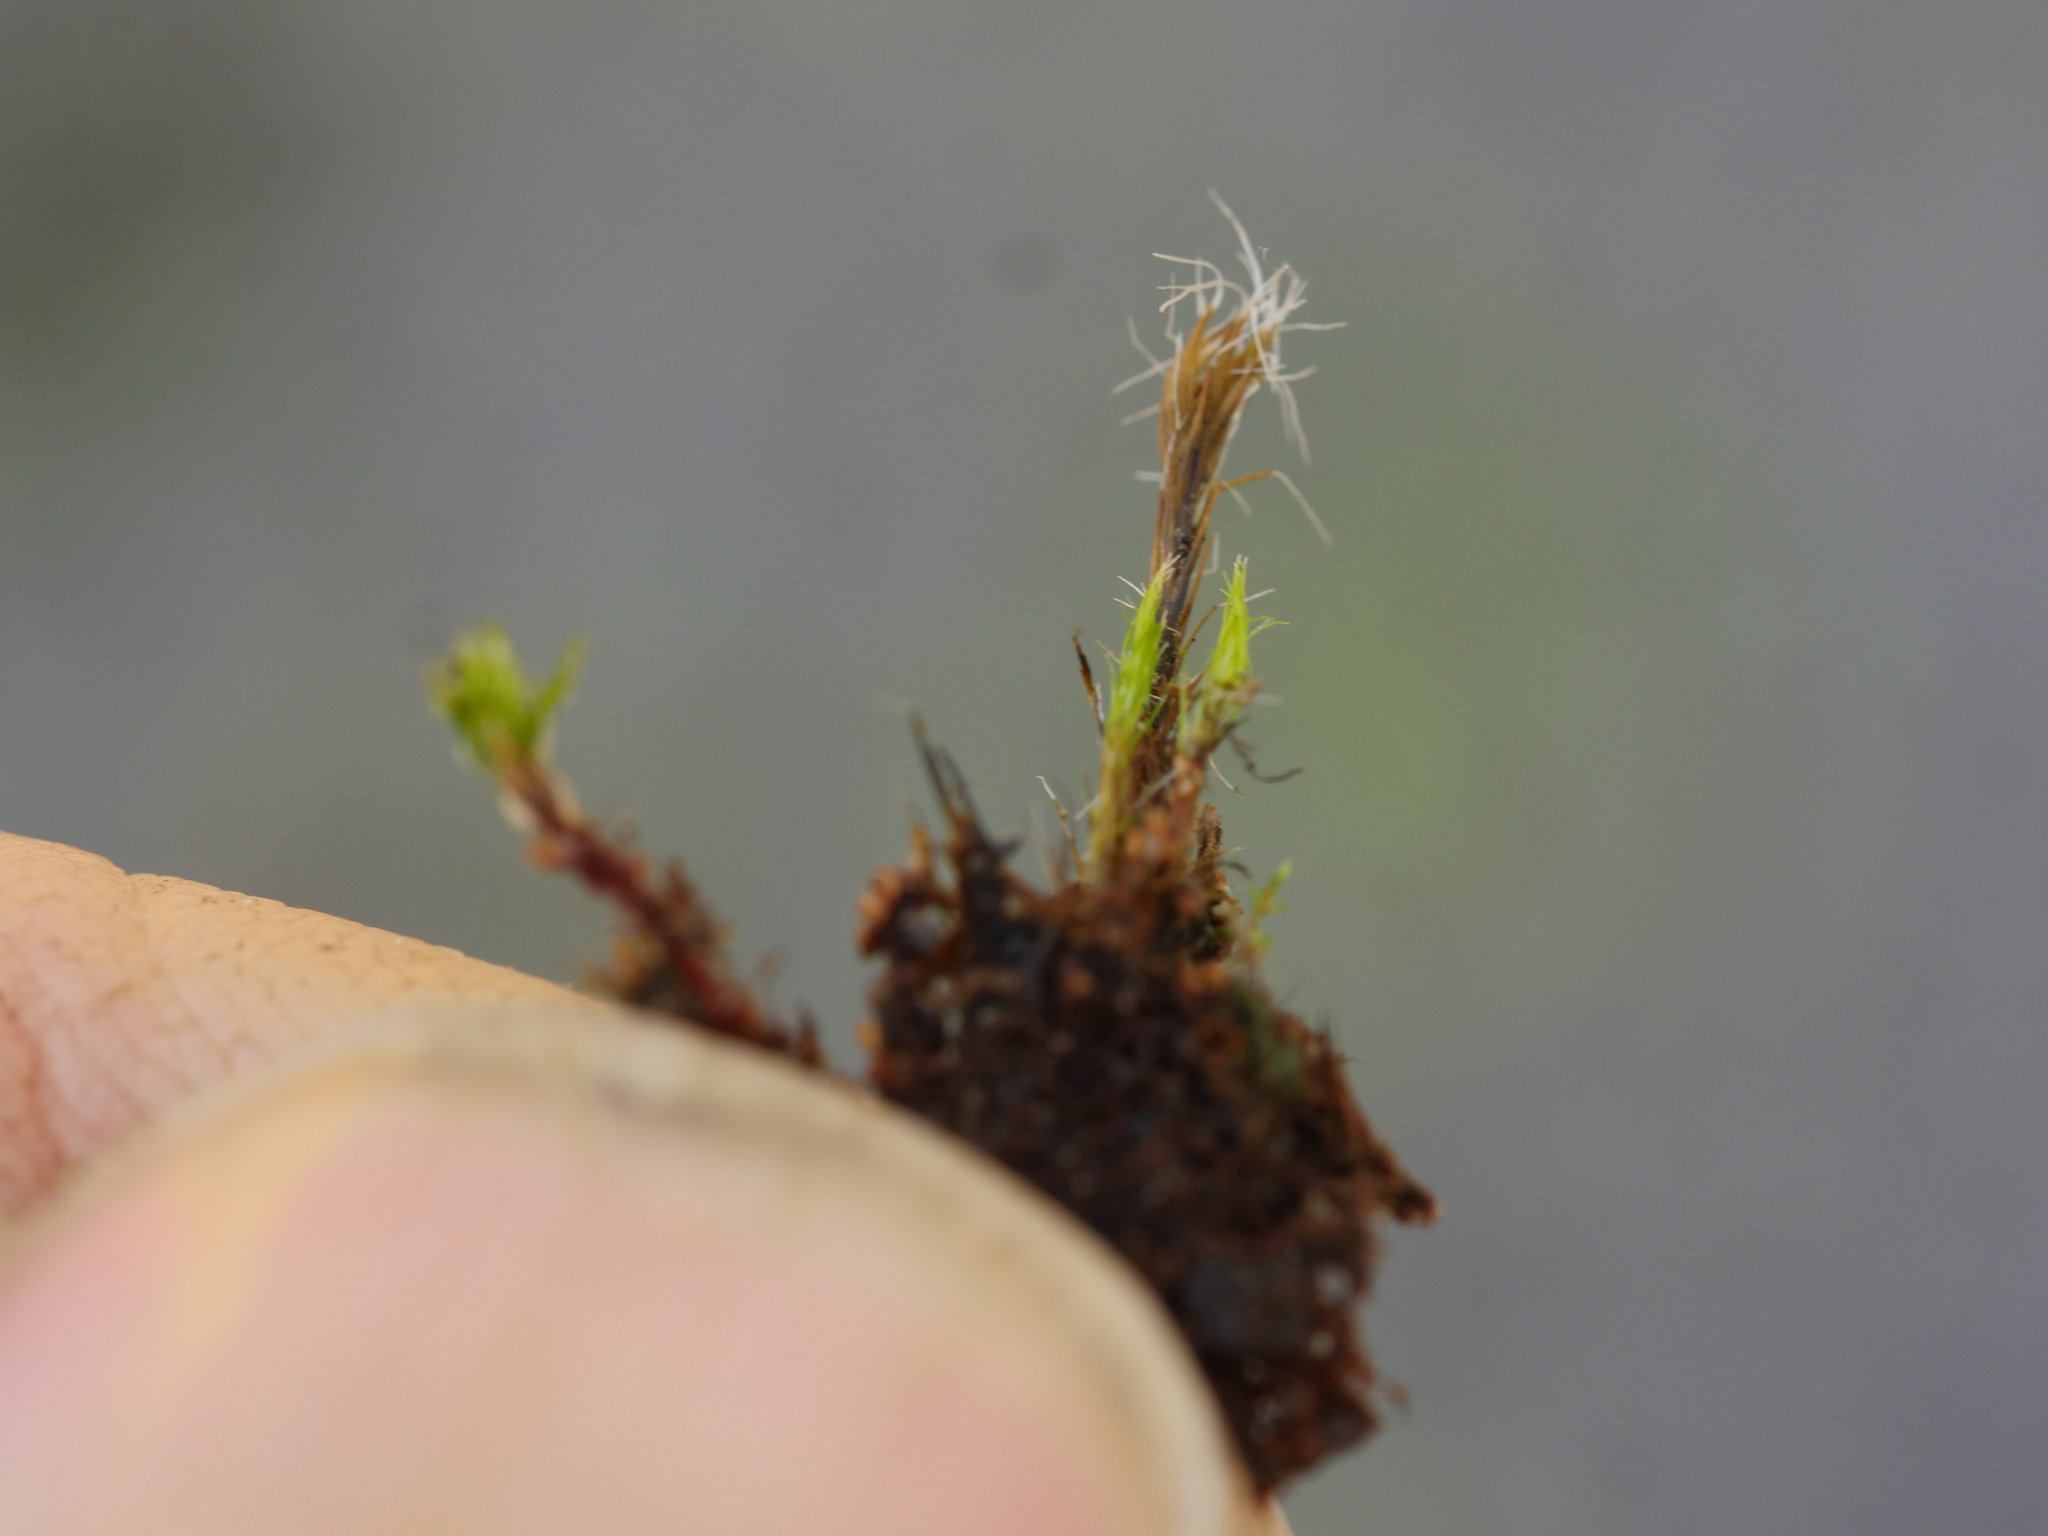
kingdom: Plantae
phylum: Bryophyta
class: Bryopsida
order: Dicranales
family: Leucobryaceae
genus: Campylopus
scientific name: Campylopus introflexus
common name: Heath star moss
